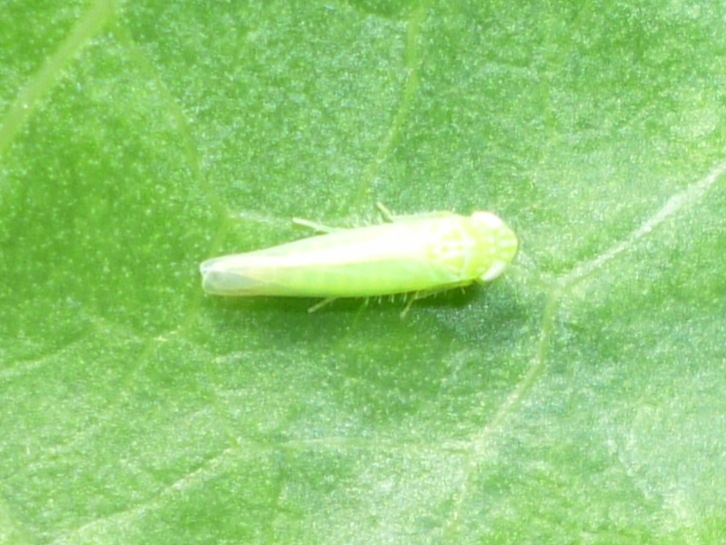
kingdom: Animalia
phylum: Arthropoda
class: Insecta
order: Hemiptera
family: Cicadellidae
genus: Empoasca
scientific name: Empoasca fabae
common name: Potato leafhopper
